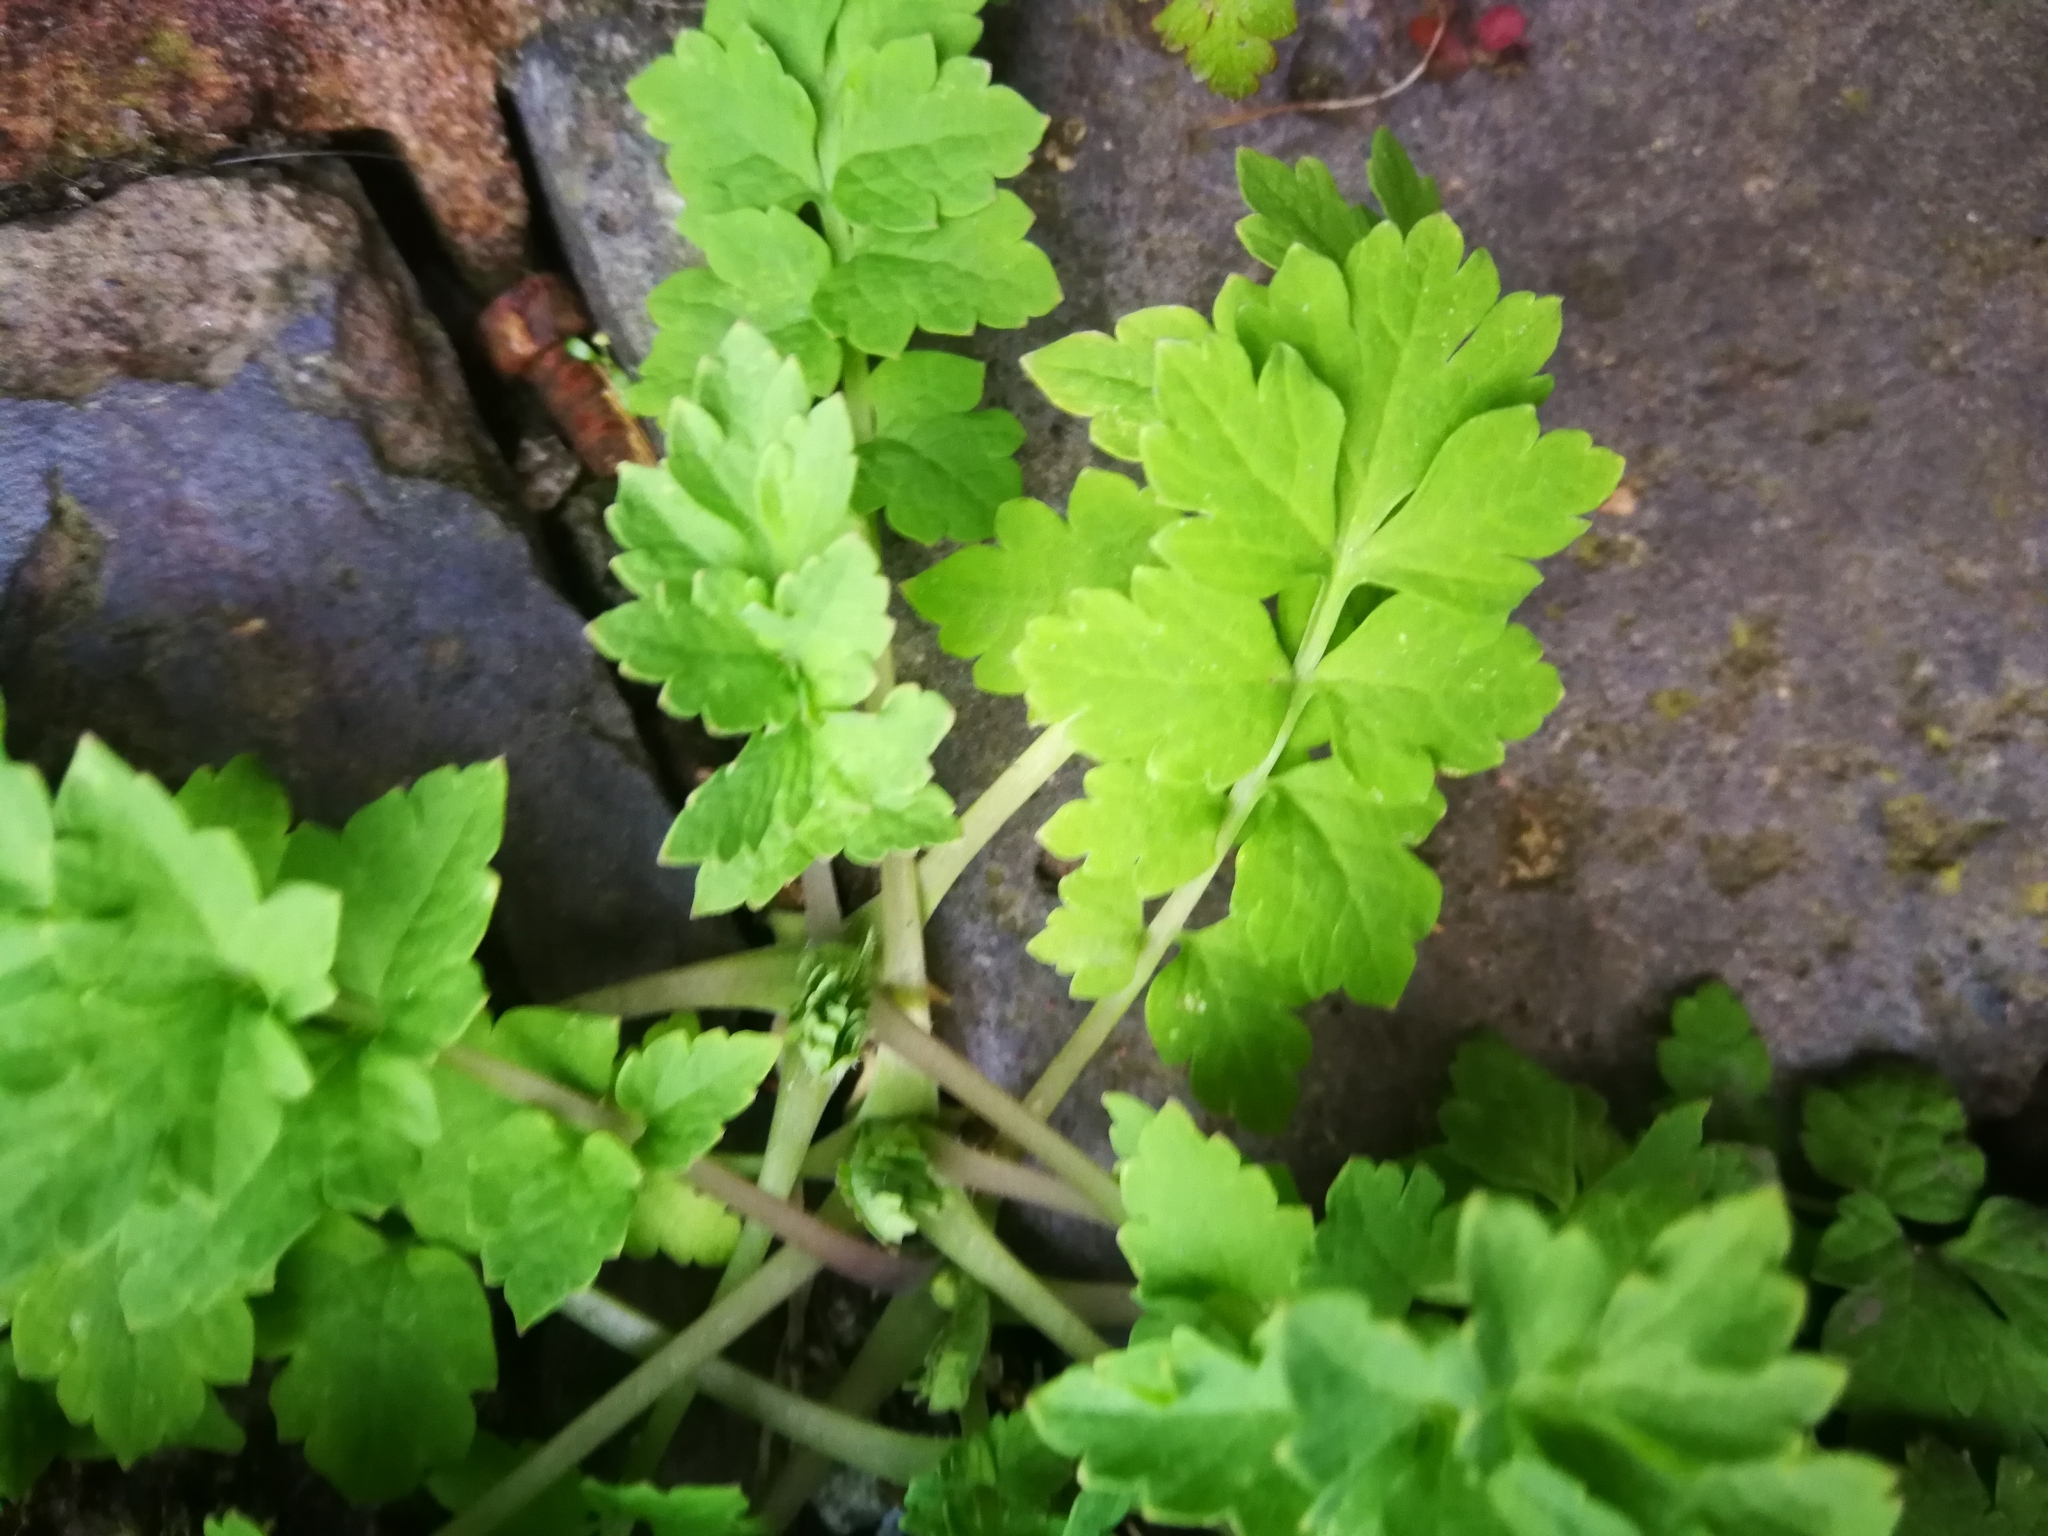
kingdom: Plantae
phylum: Tracheophyta
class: Magnoliopsida
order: Ranunculales
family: Papaveraceae
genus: Chelidonium
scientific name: Chelidonium majus
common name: Greater celandine
